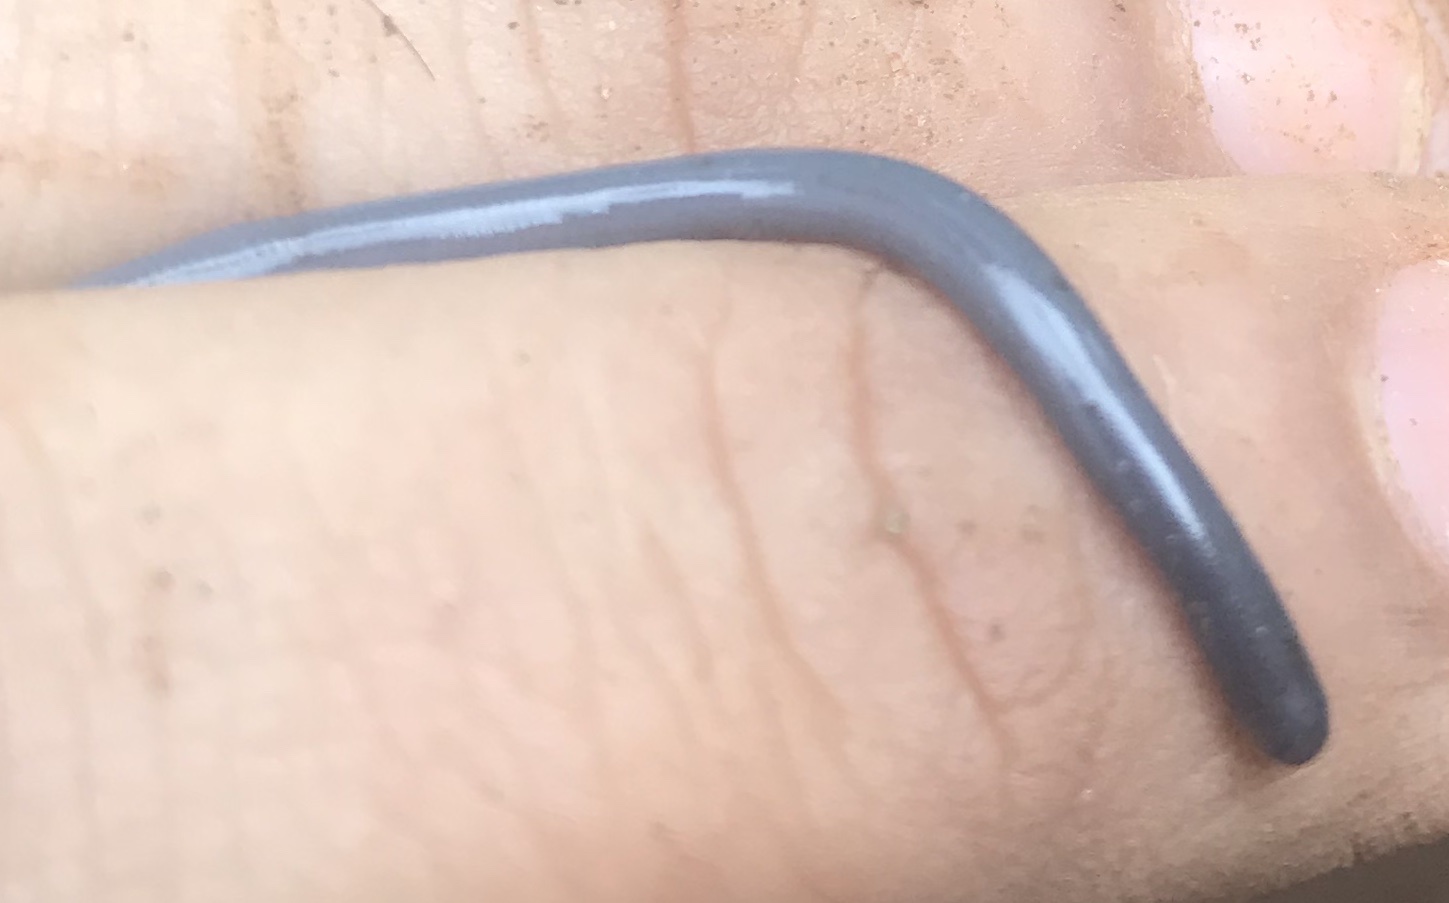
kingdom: Animalia
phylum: Chordata
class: Squamata
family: Typhlopidae
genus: Indotyphlops
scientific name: Indotyphlops braminus
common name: Brahminy blindsnake
